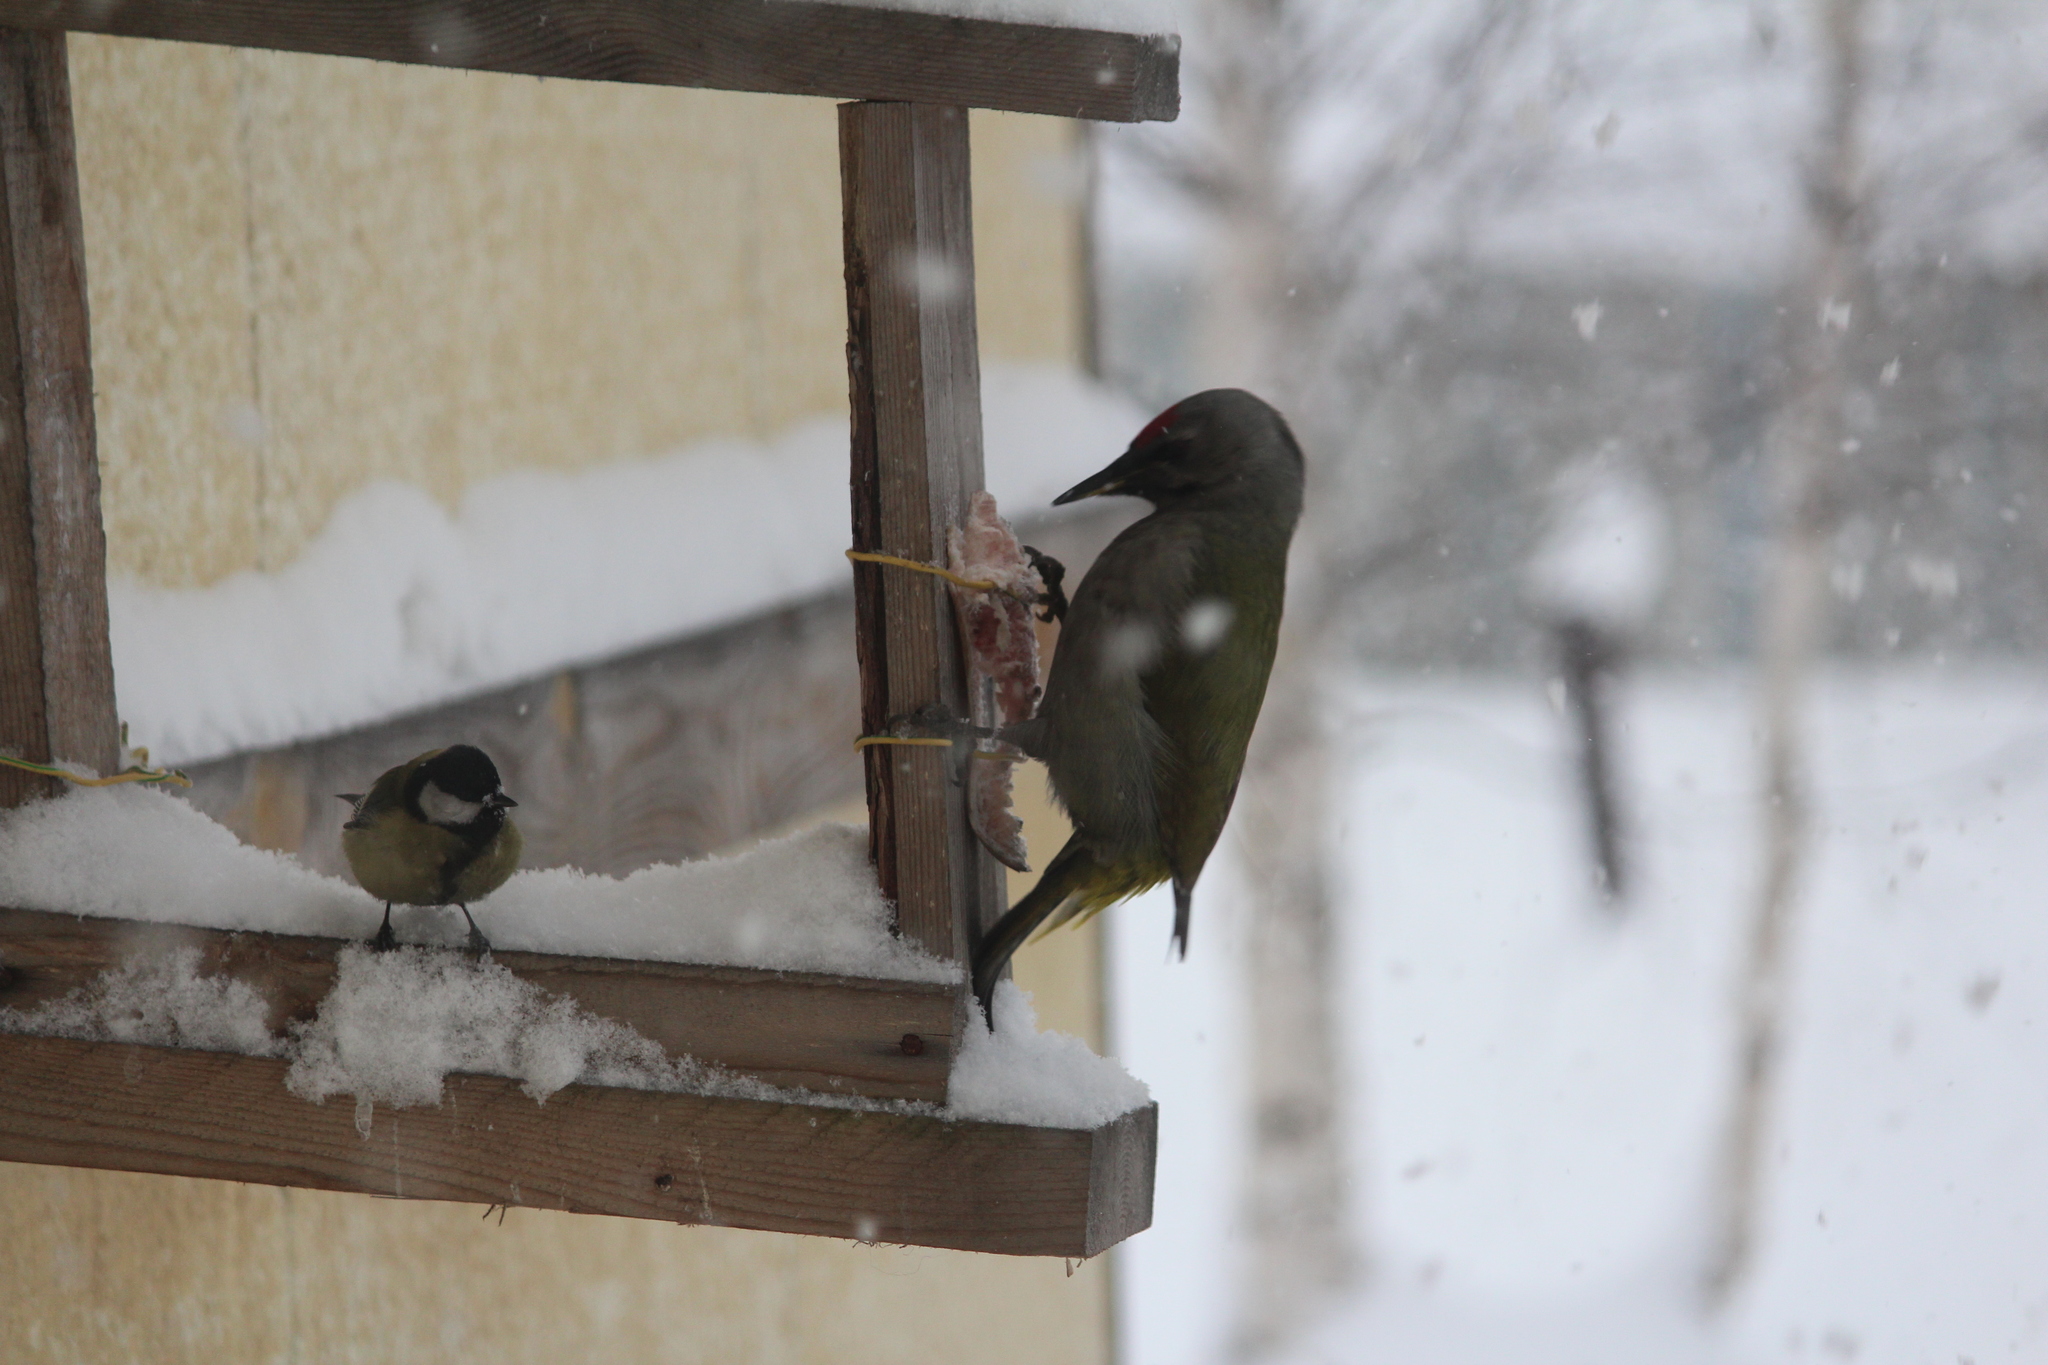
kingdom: Animalia
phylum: Chordata
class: Aves
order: Piciformes
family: Picidae
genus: Picus
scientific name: Picus canus
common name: Grey-headed woodpecker
